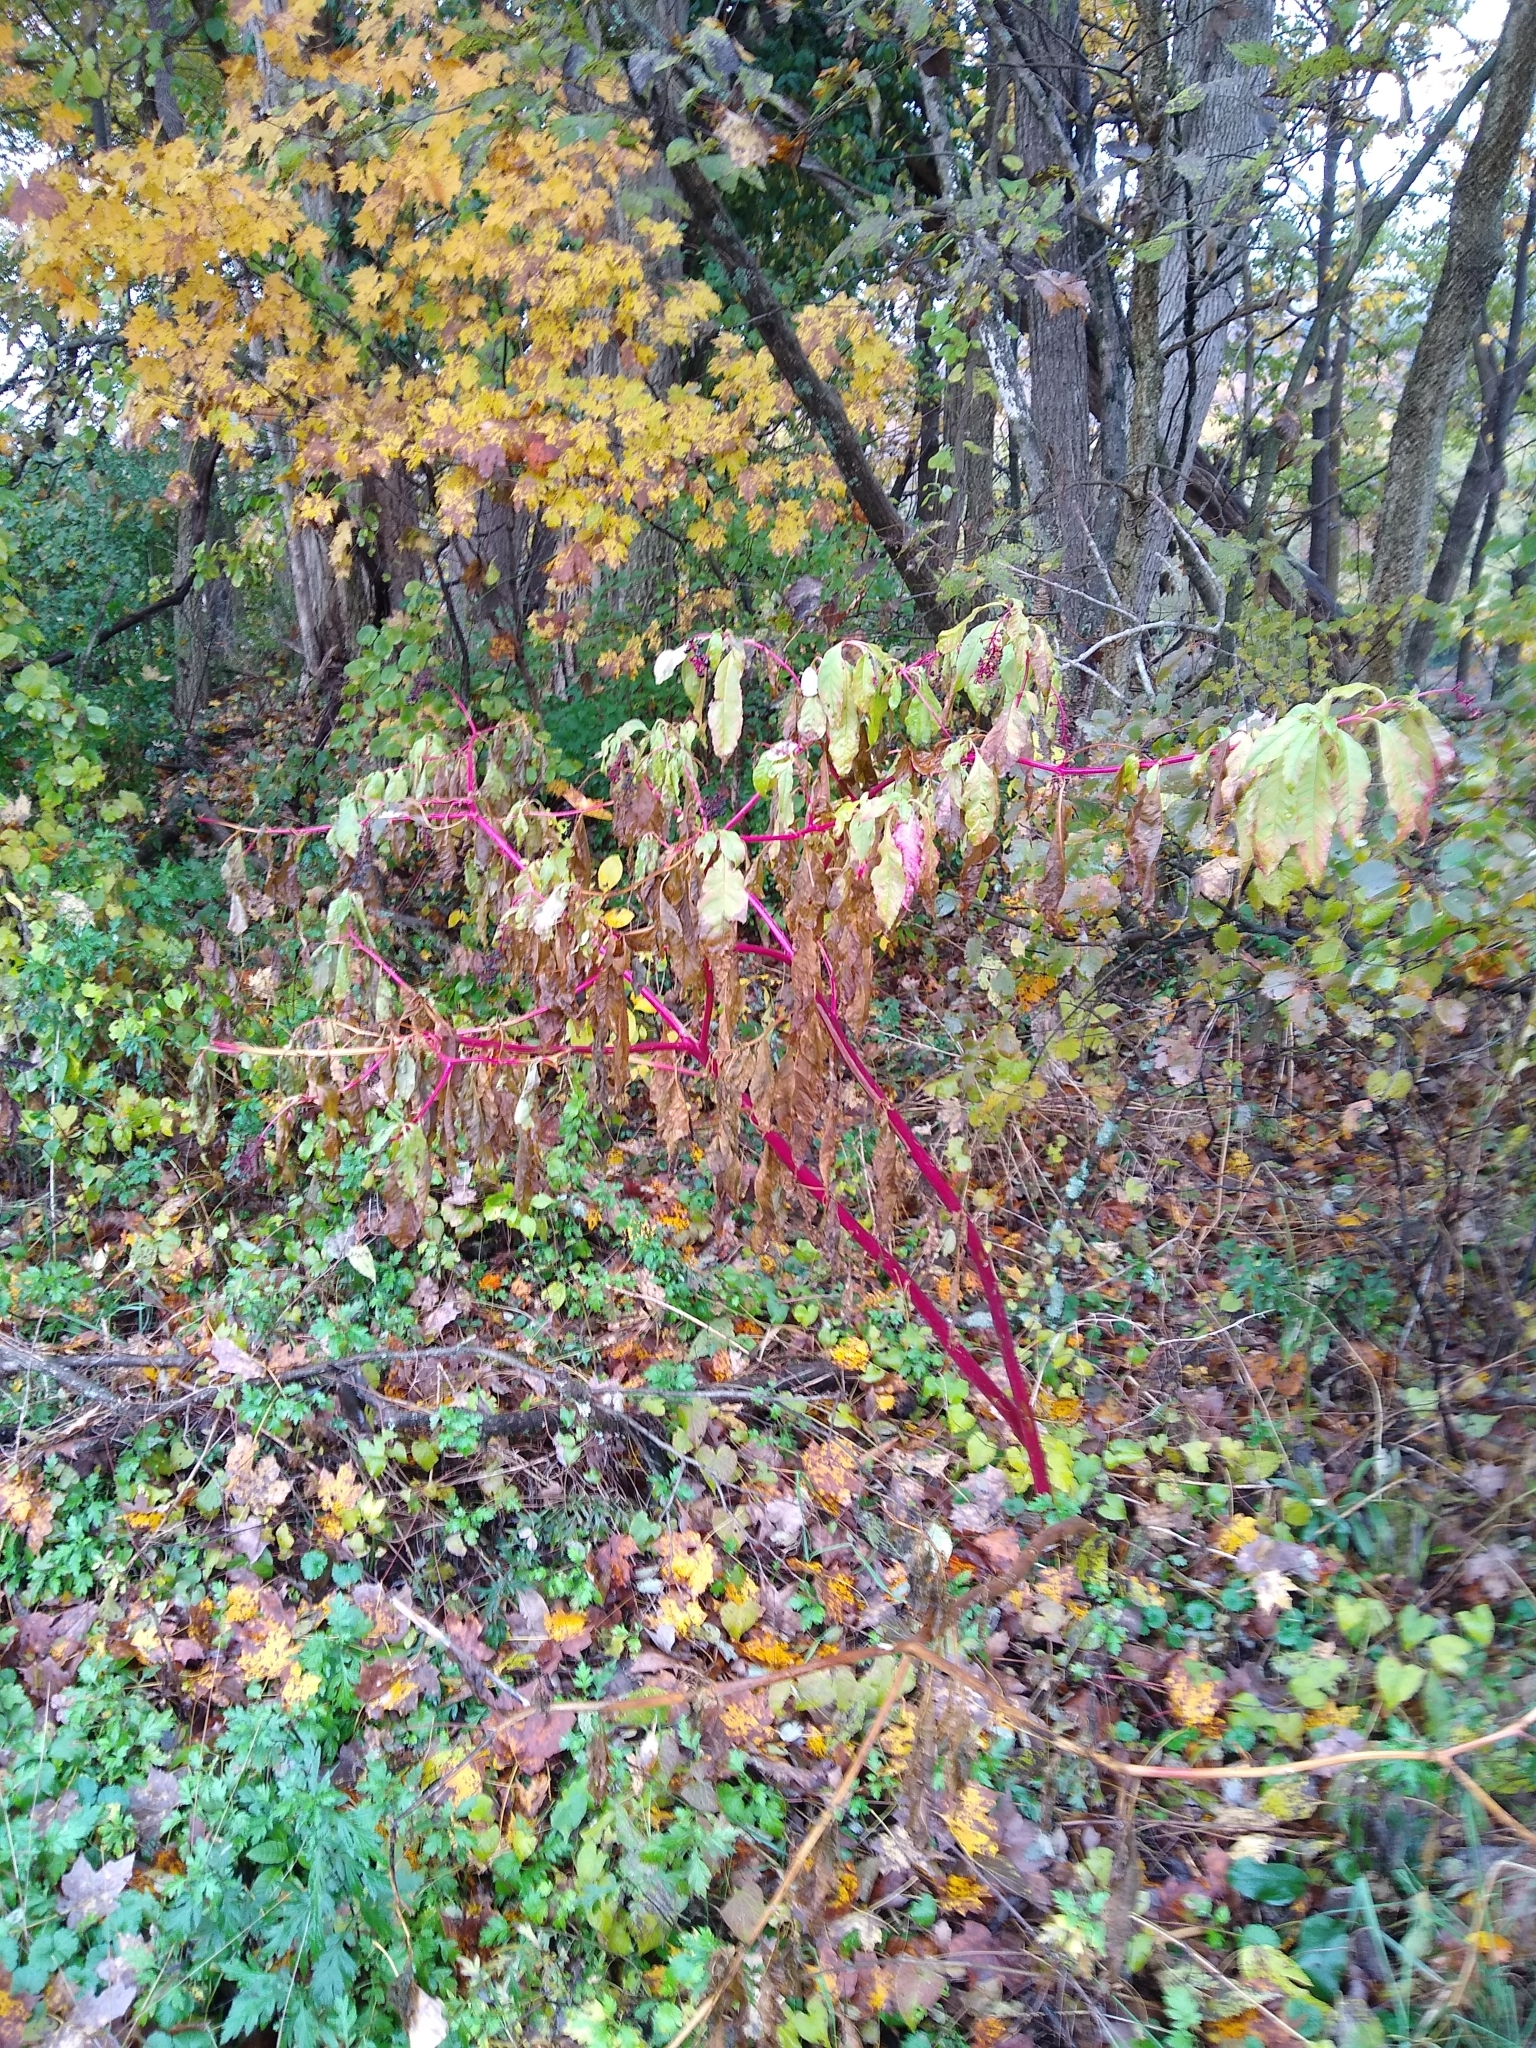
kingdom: Plantae
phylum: Tracheophyta
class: Magnoliopsida
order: Caryophyllales
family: Phytolaccaceae
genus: Phytolacca
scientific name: Phytolacca americana
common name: American pokeweed
